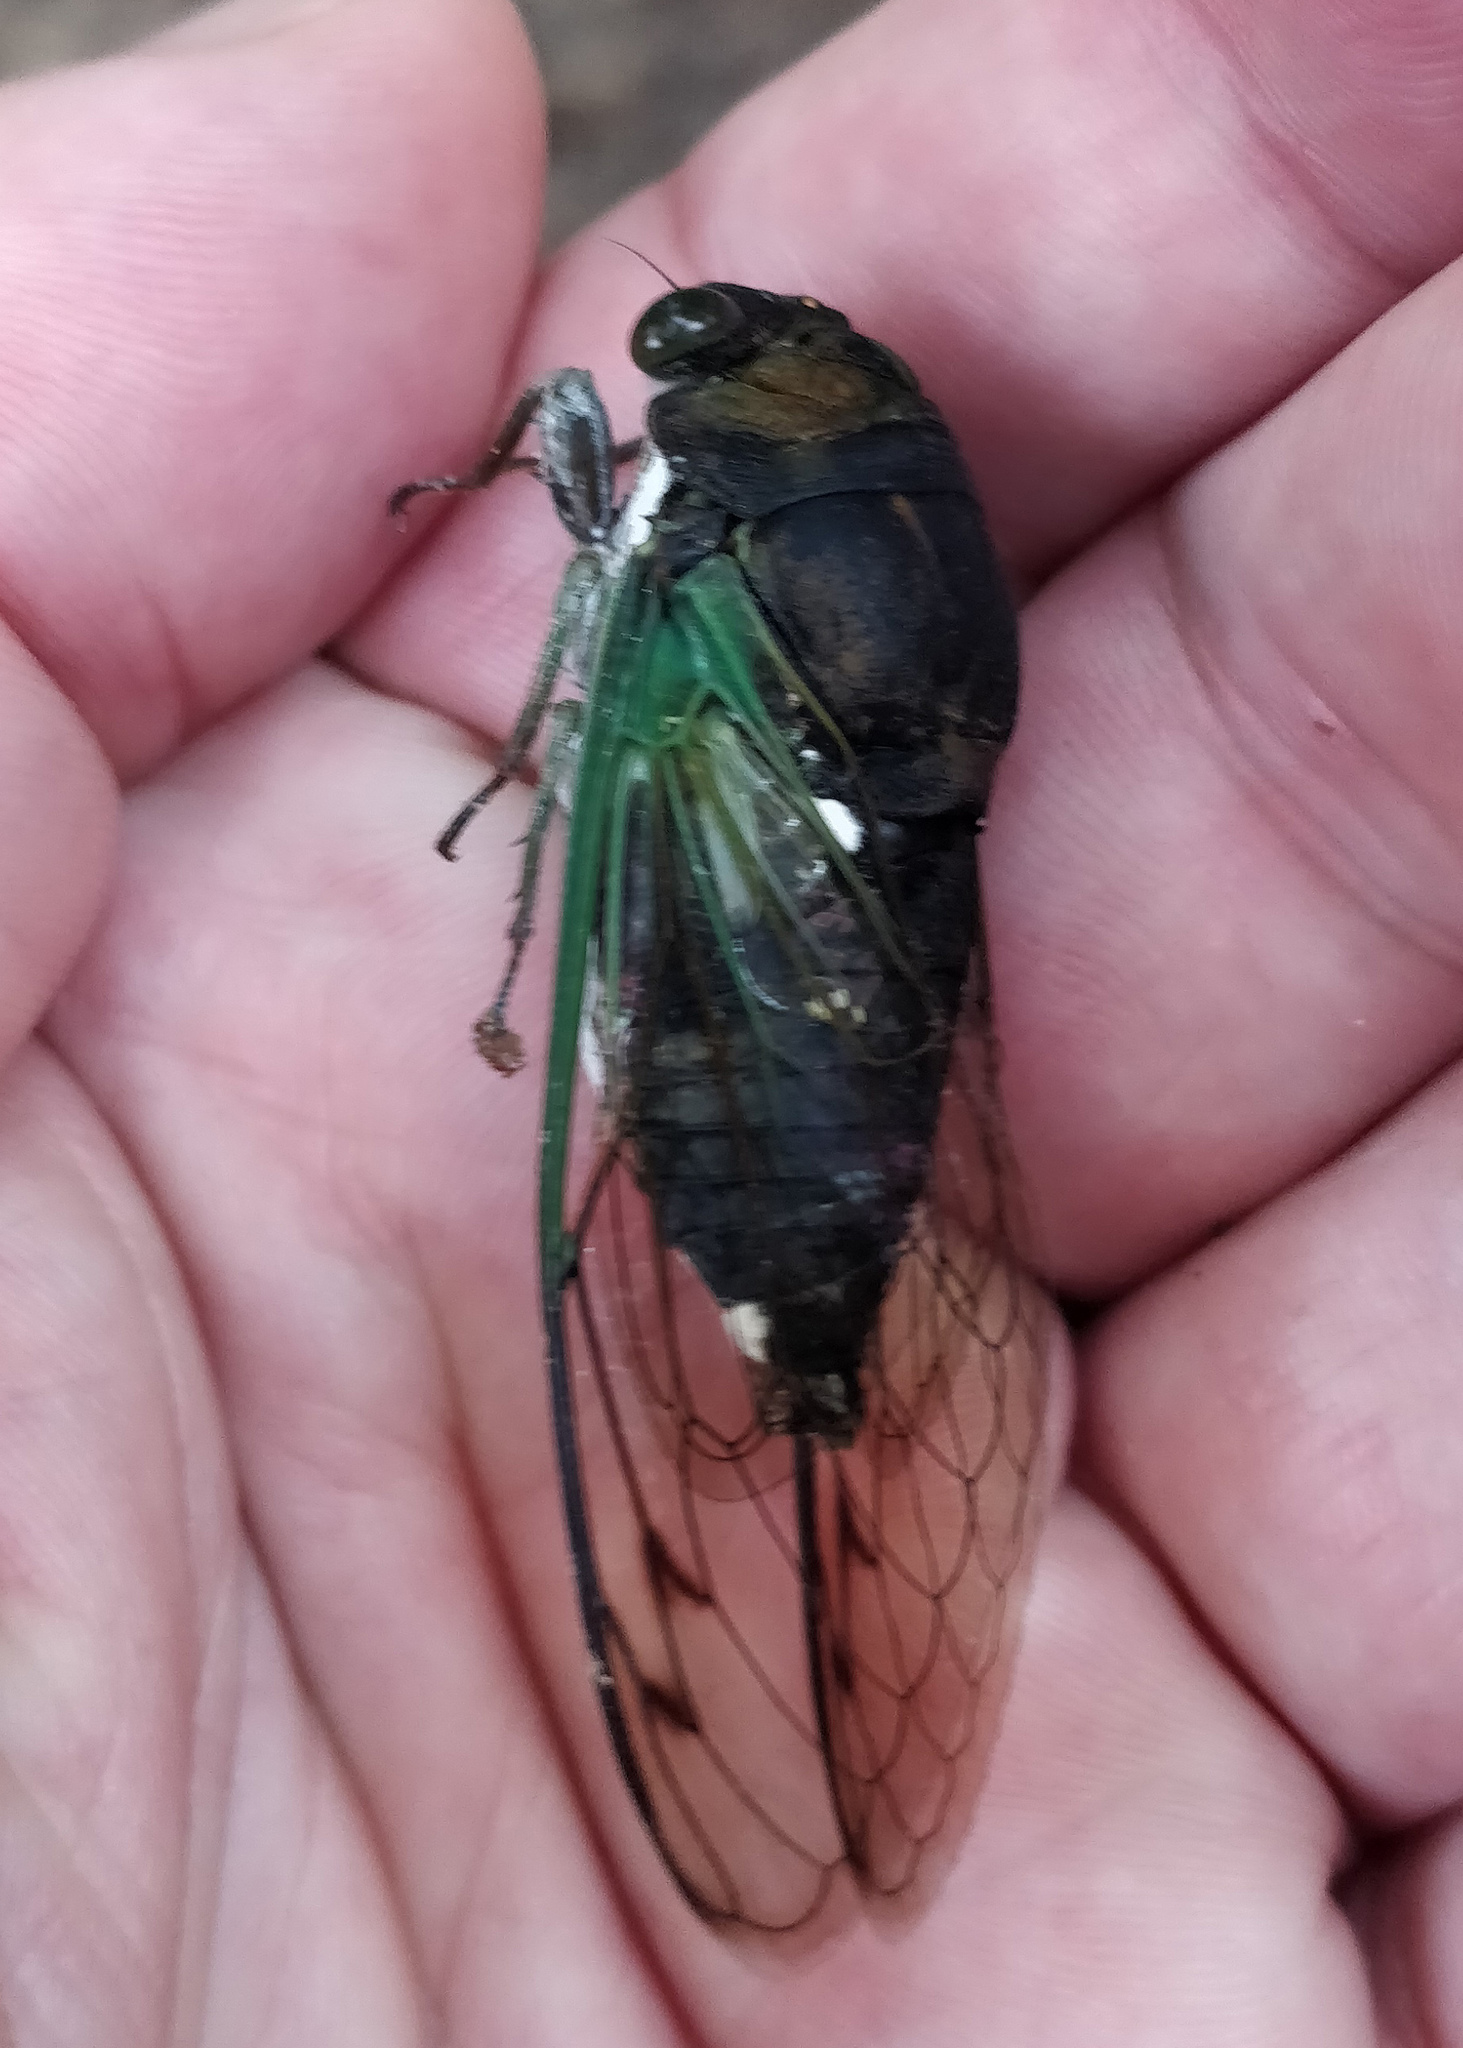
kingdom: Animalia
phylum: Arthropoda
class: Insecta
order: Hemiptera
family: Cicadidae
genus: Neotibicen
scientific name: Neotibicen tibicen
